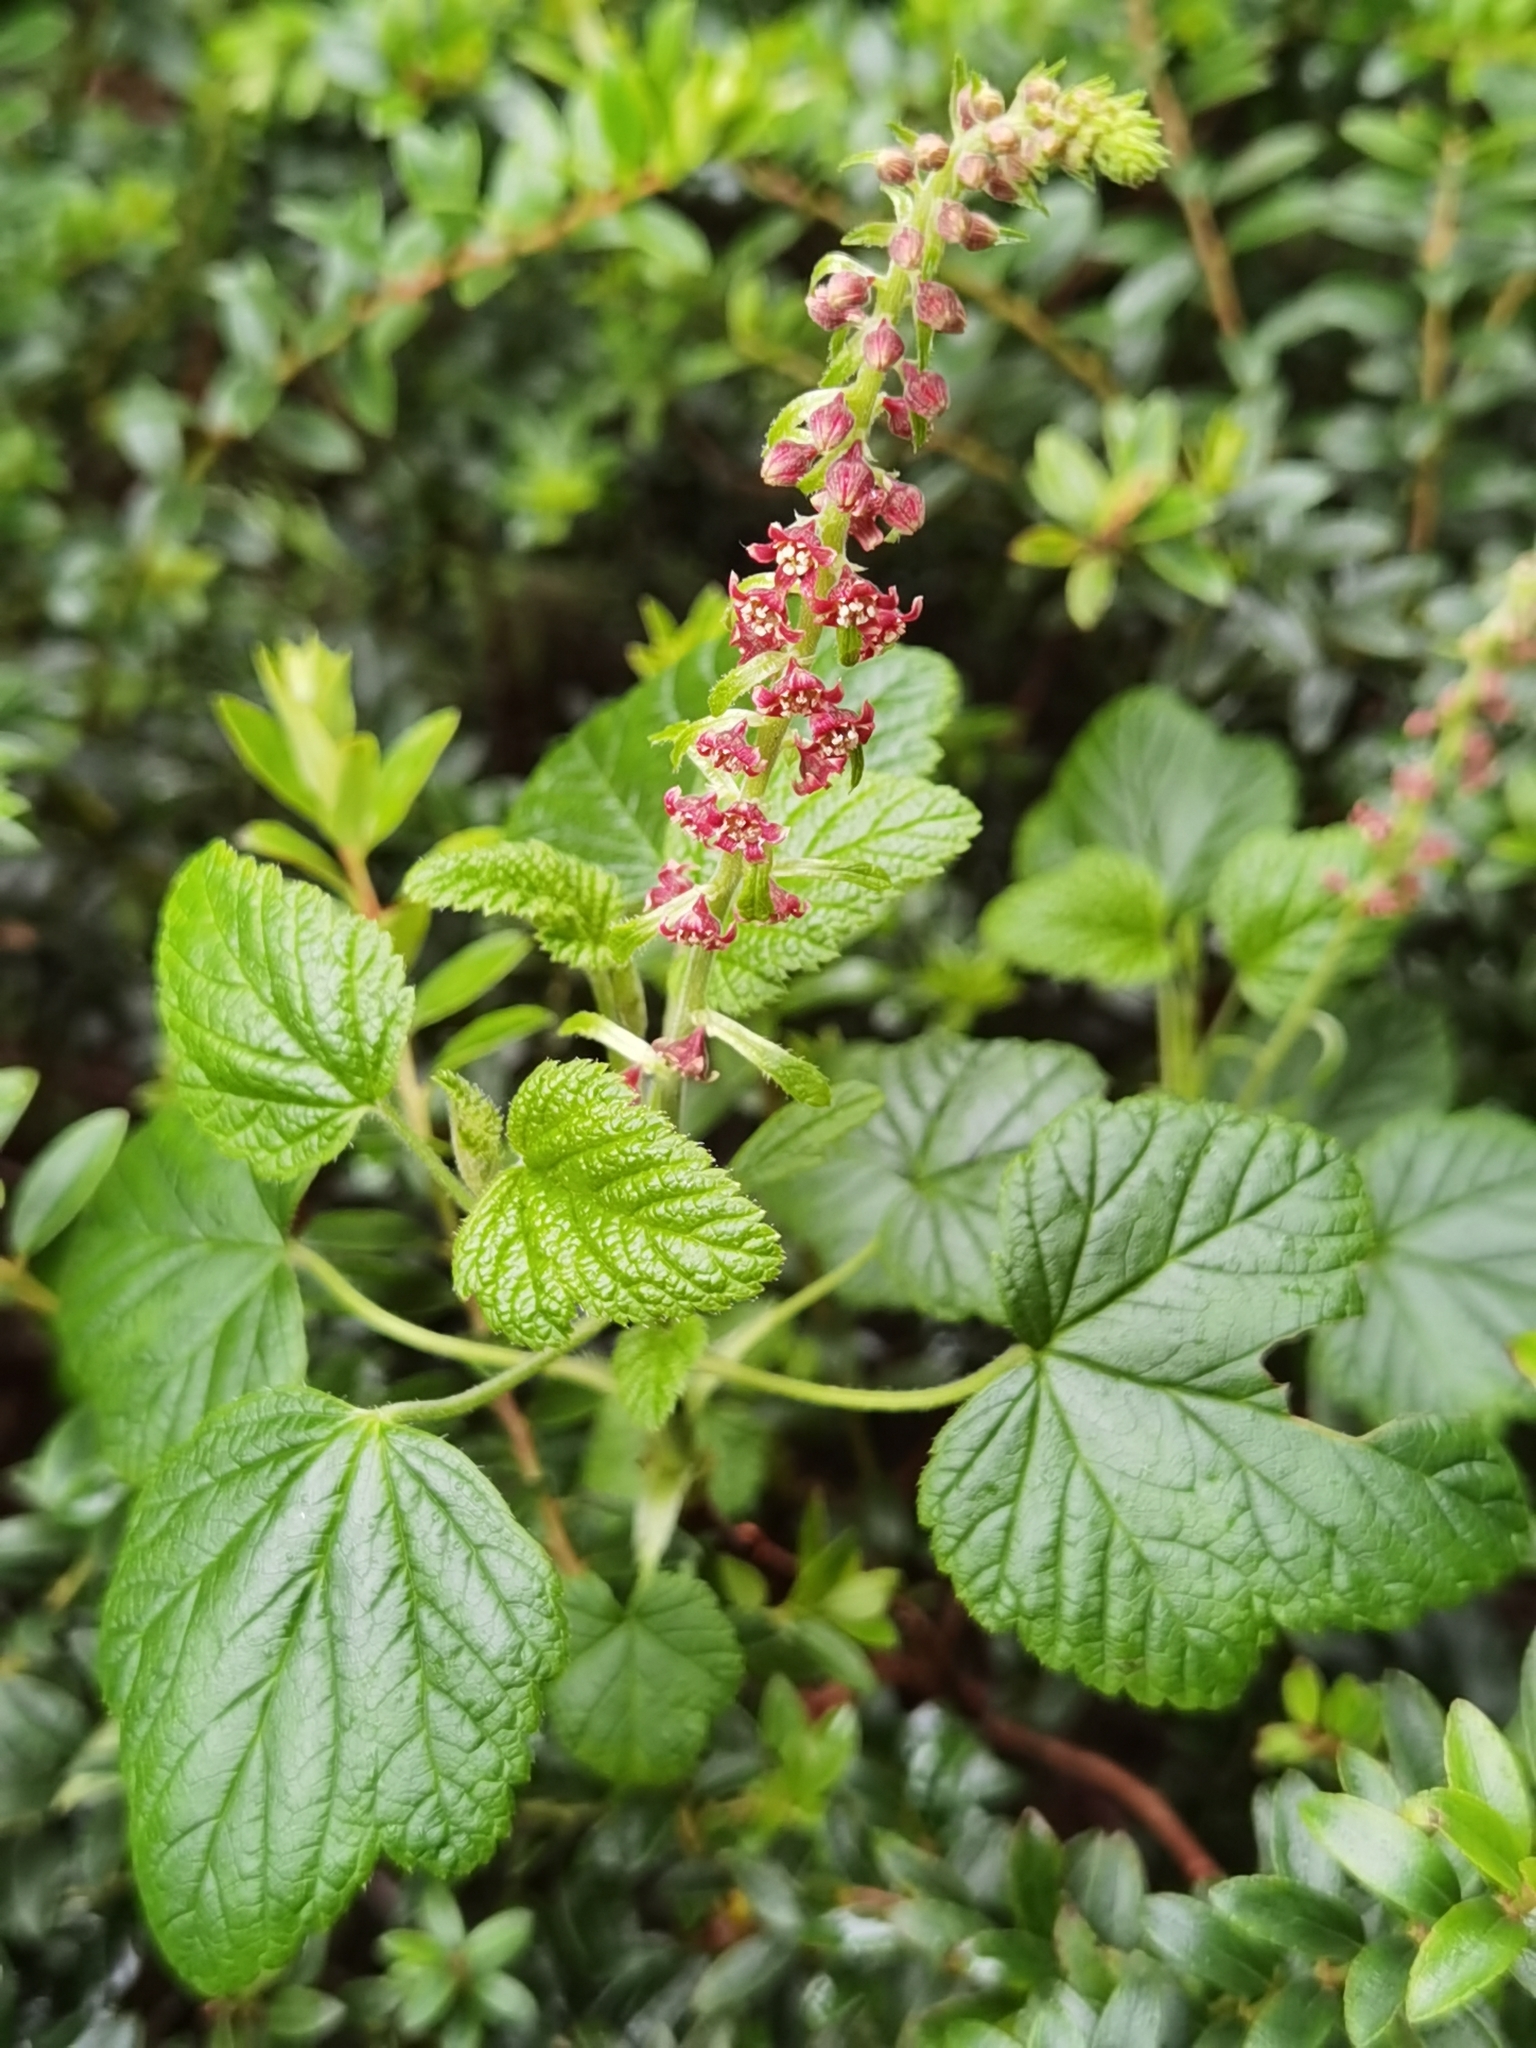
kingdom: Plantae
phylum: Tracheophyta
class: Magnoliopsida
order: Saxifragales
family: Grossulariaceae
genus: Ribes
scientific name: Ribes costaricensis
